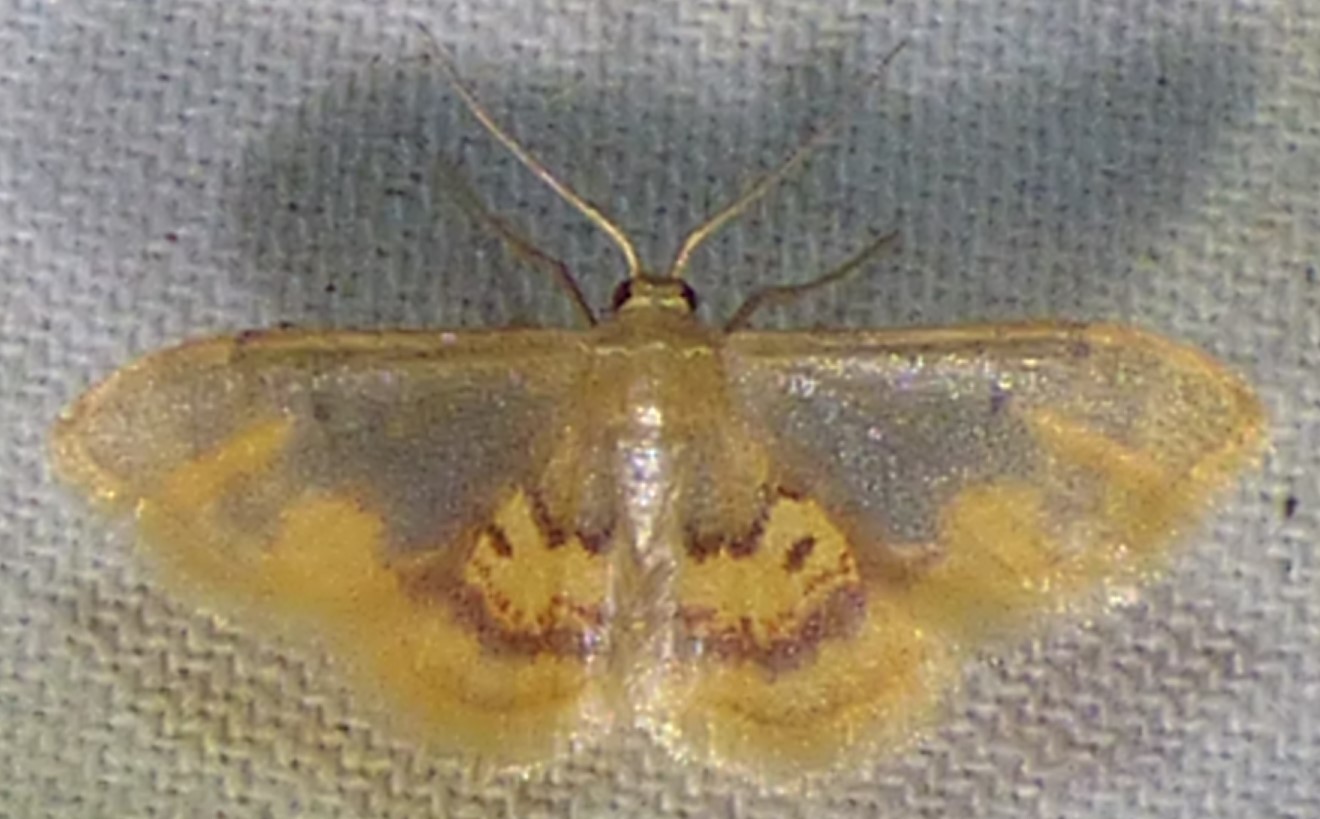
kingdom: Animalia
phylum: Arthropoda
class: Insecta
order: Lepidoptera
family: Geometridae
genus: Idaea
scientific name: Idaea scintillularia
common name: Diminutive wave
